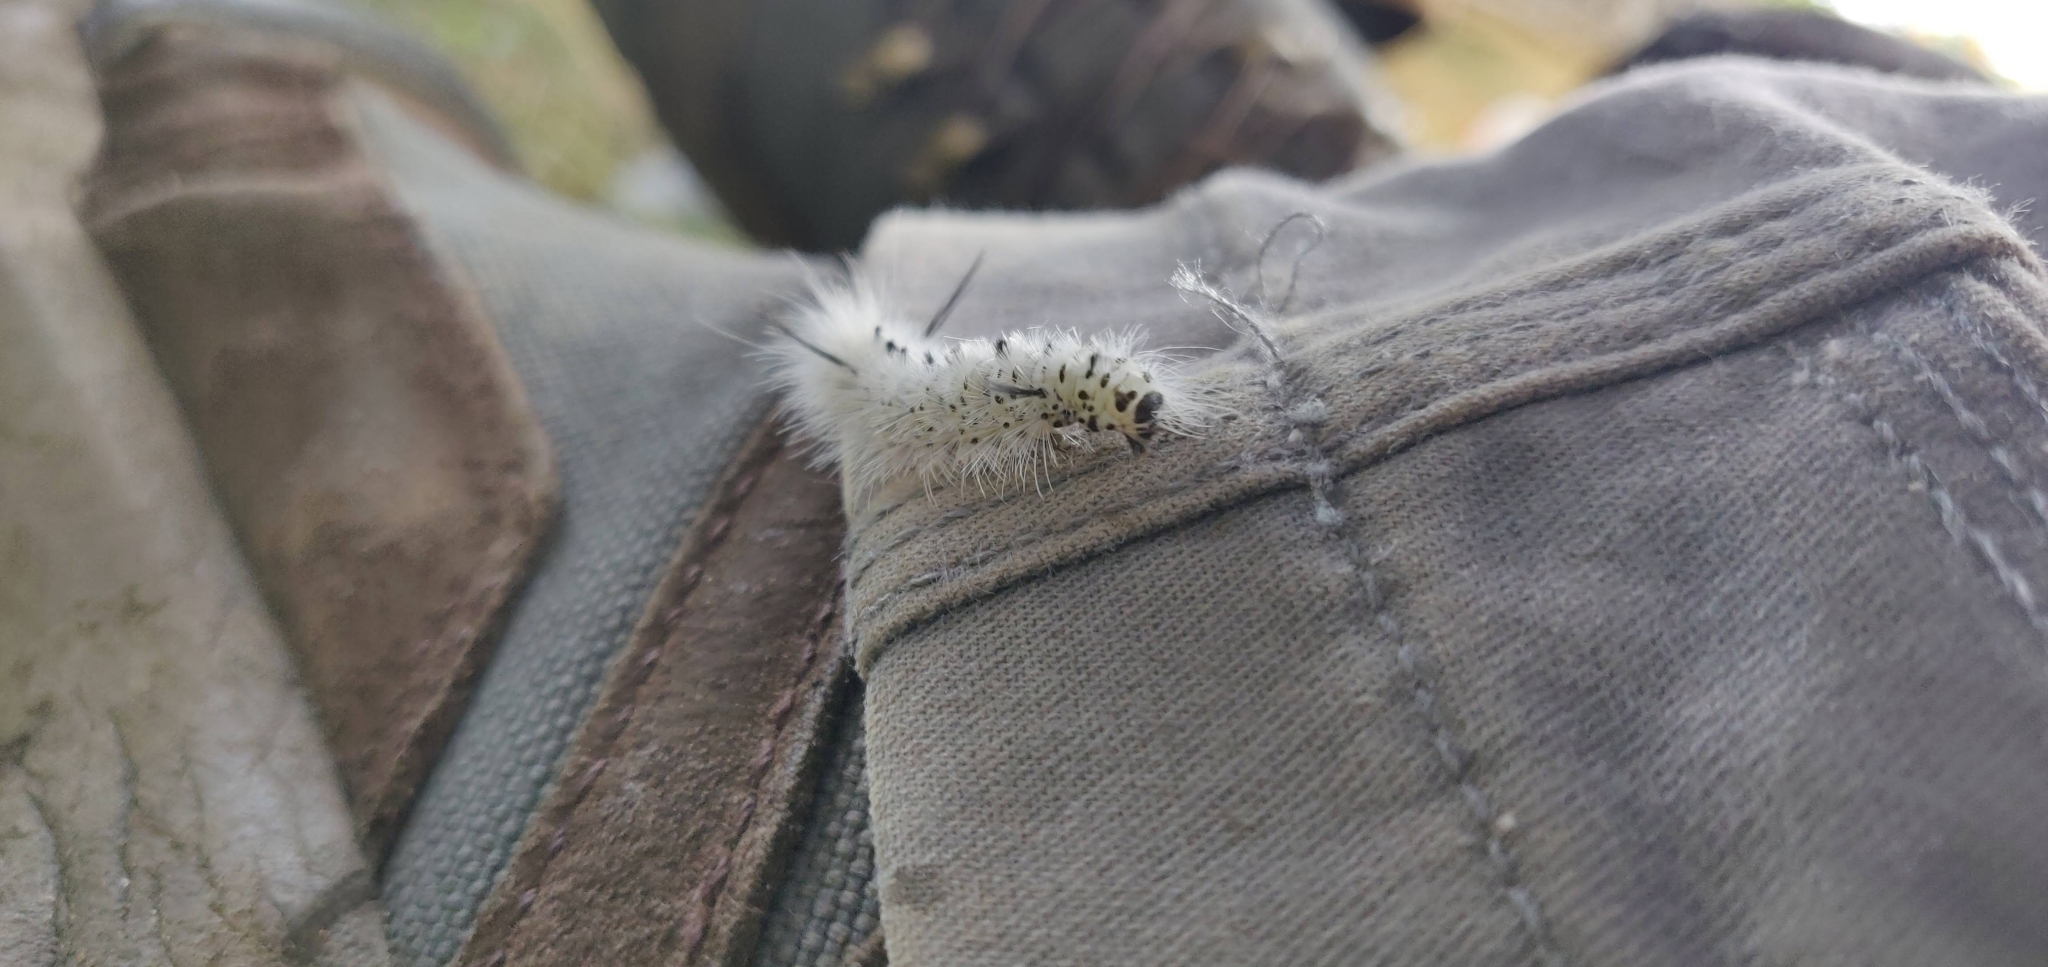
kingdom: Animalia
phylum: Arthropoda
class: Insecta
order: Lepidoptera
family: Erebidae
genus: Lophocampa
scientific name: Lophocampa caryae
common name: Hickory tussock moth
